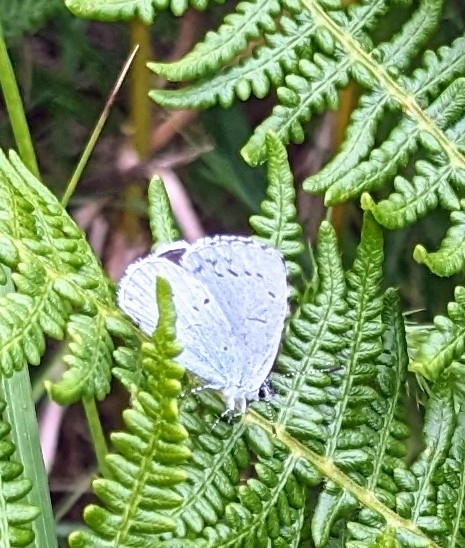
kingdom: Animalia
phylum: Arthropoda
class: Insecta
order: Lepidoptera
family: Lycaenidae
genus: Celastrina
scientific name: Celastrina argiolus
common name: Holly blue
